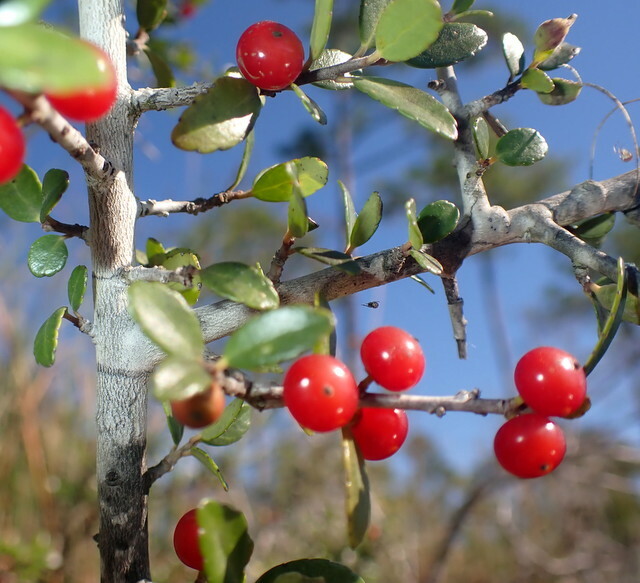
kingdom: Plantae
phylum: Tracheophyta
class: Magnoliopsida
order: Aquifoliales
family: Aquifoliaceae
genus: Ilex
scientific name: Ilex vomitoria
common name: Yaupon holly
